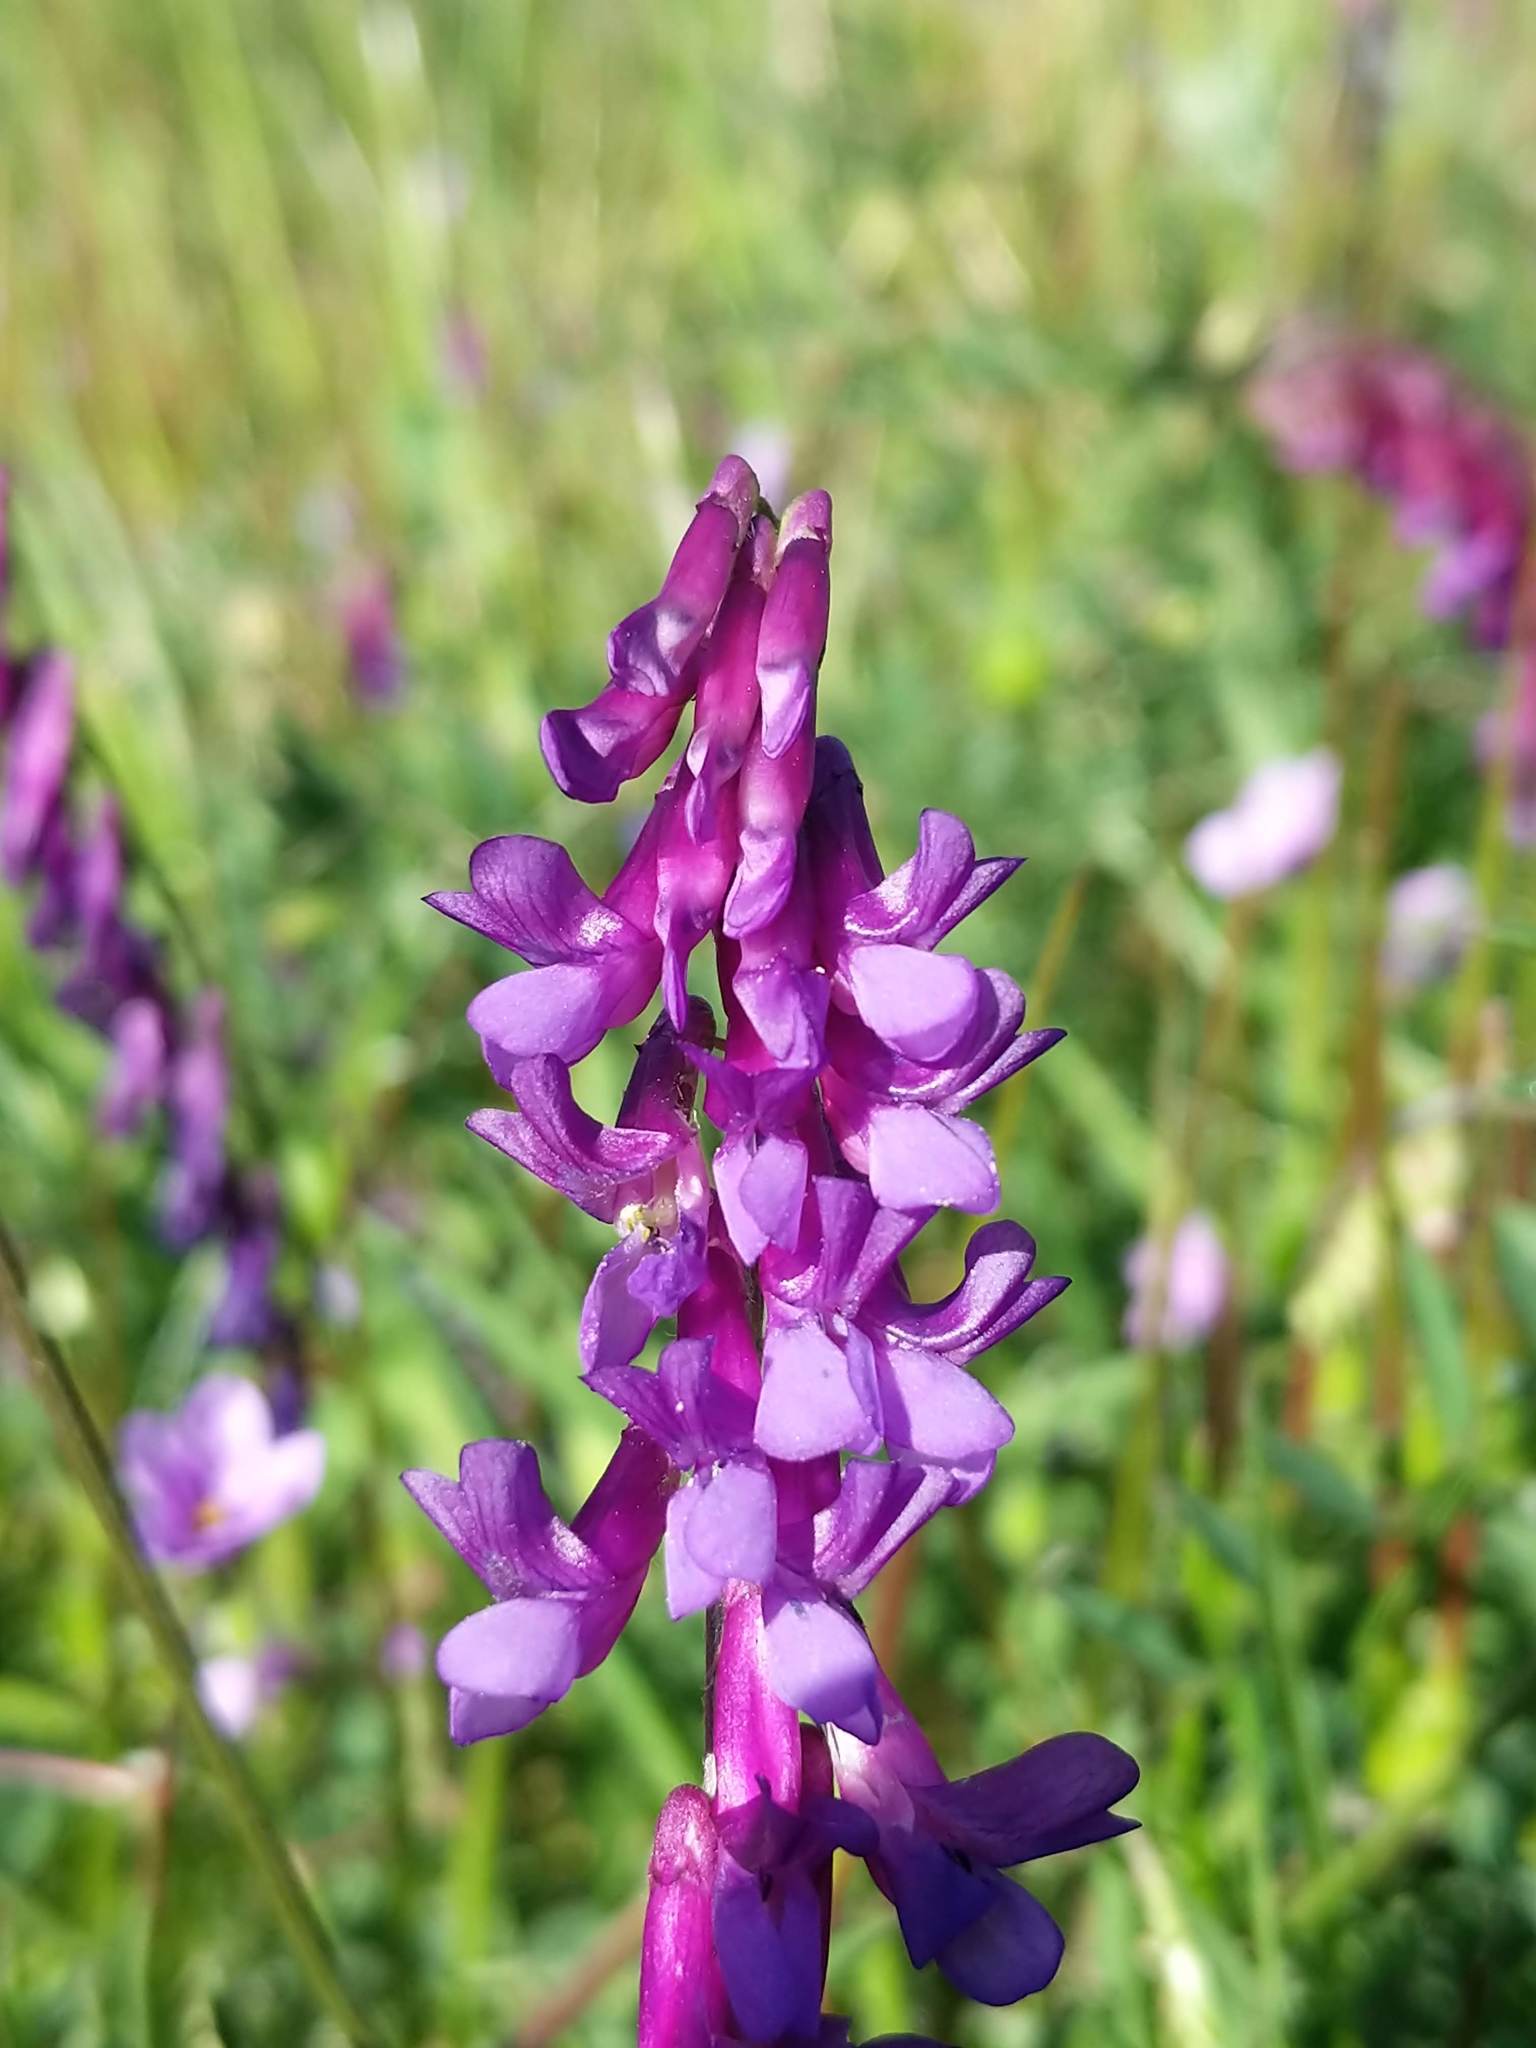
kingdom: Plantae
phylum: Tracheophyta
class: Magnoliopsida
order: Fabales
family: Fabaceae
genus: Vicia
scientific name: Vicia villosa
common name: Fodder vetch
